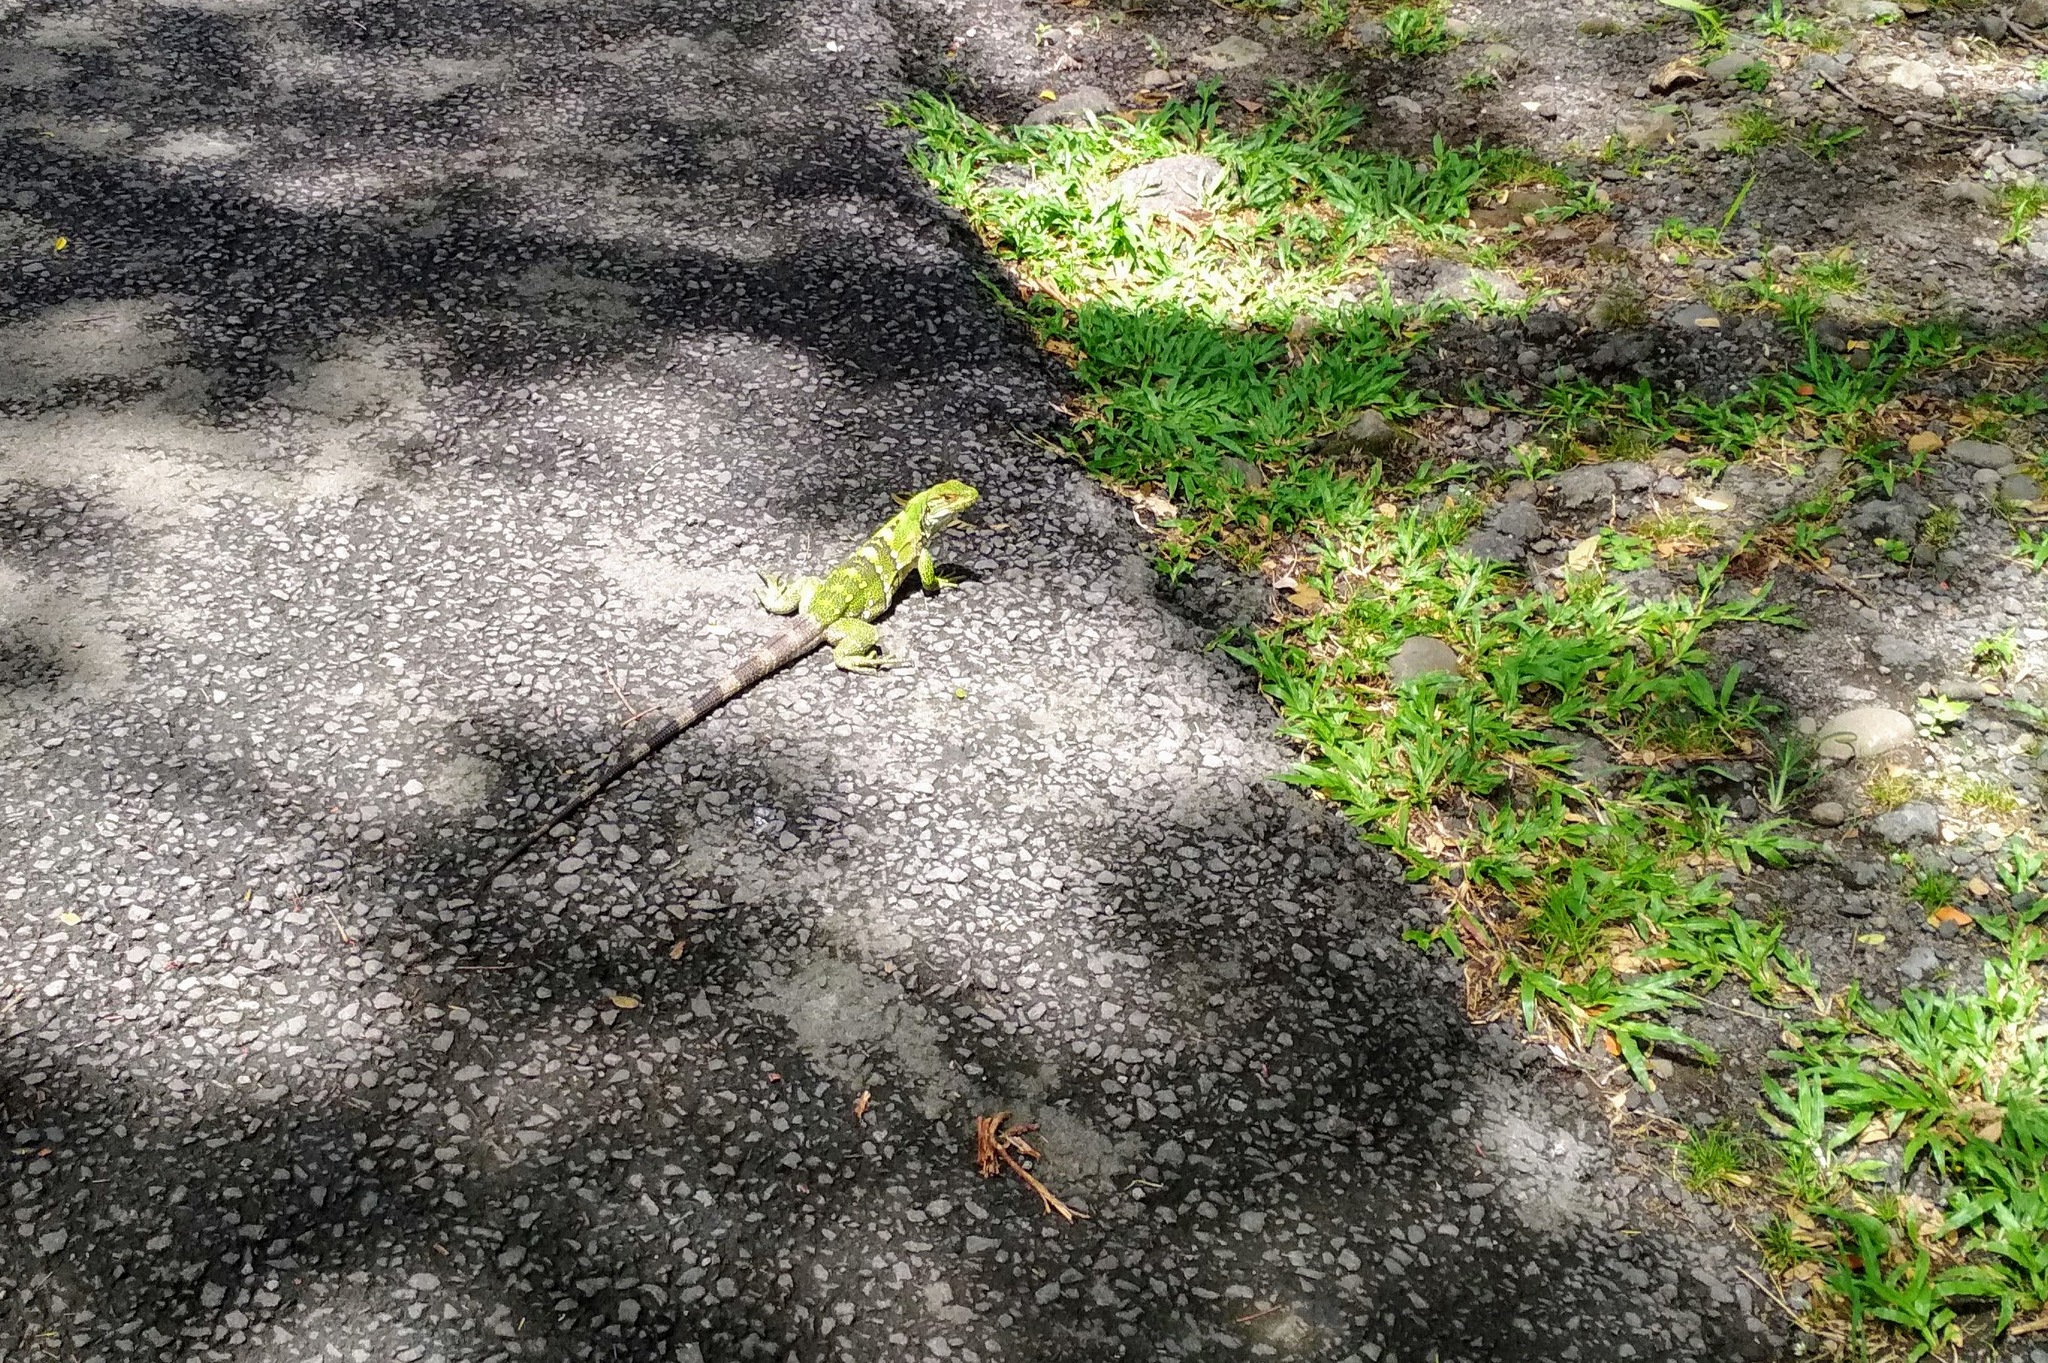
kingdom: Animalia
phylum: Chordata
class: Squamata
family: Iguanidae
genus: Ctenosaura
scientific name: Ctenosaura similis
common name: Black spiny-tailed iguana
